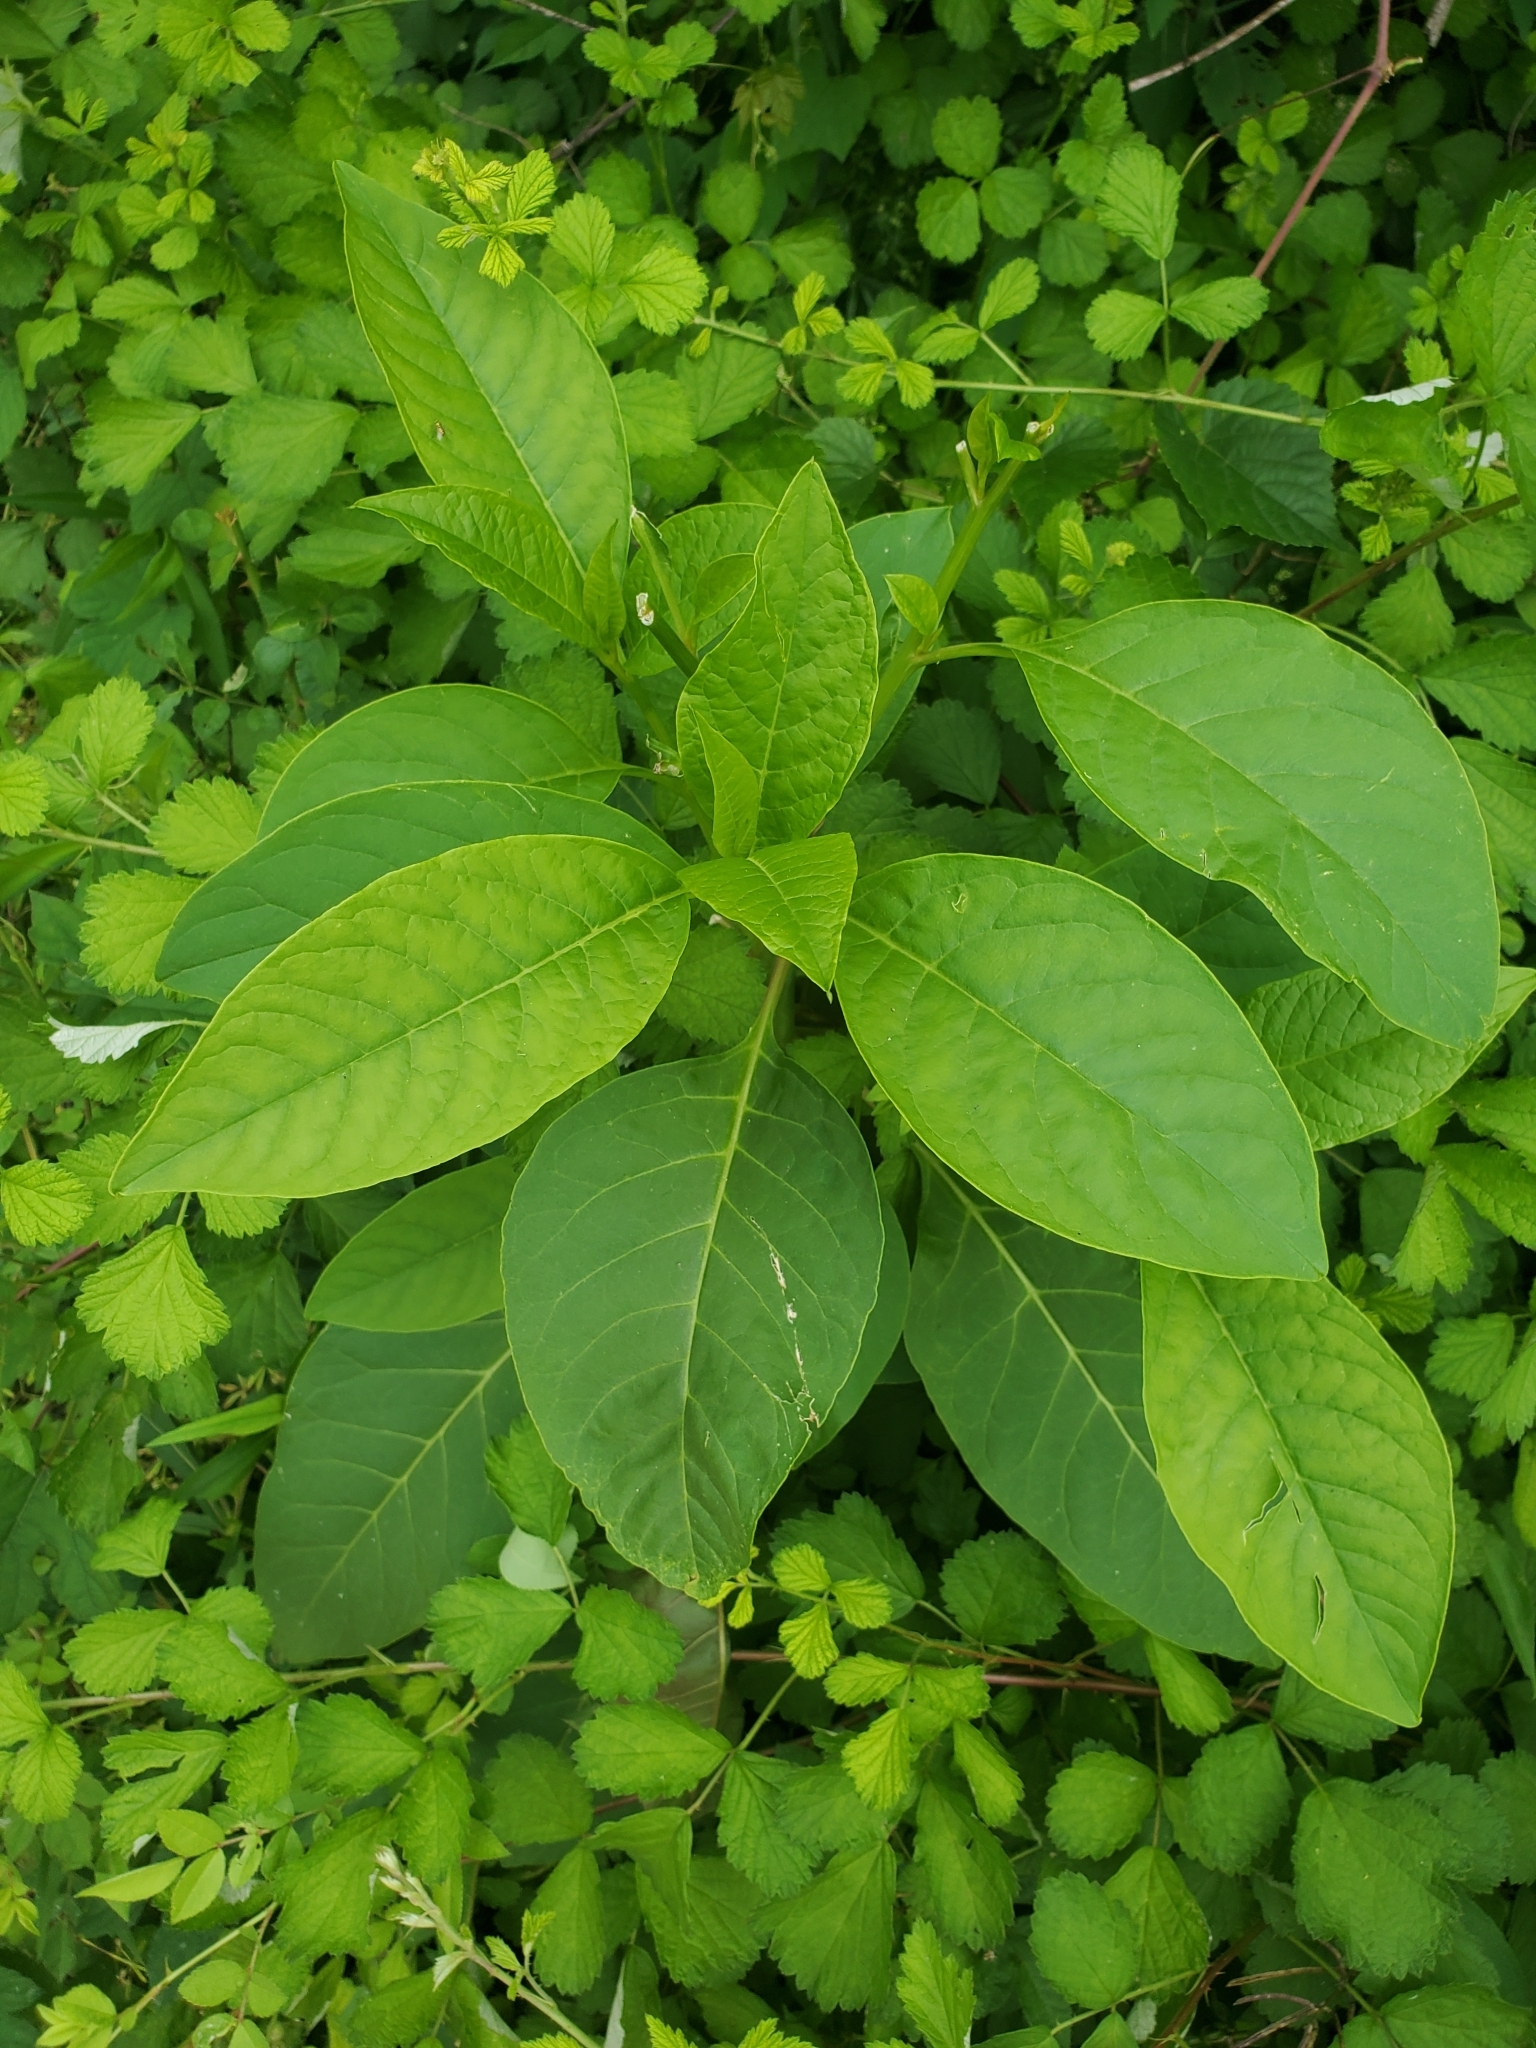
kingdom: Plantae
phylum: Tracheophyta
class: Magnoliopsida
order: Caryophyllales
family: Phytolaccaceae
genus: Phytolacca
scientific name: Phytolacca americana
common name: American pokeweed
